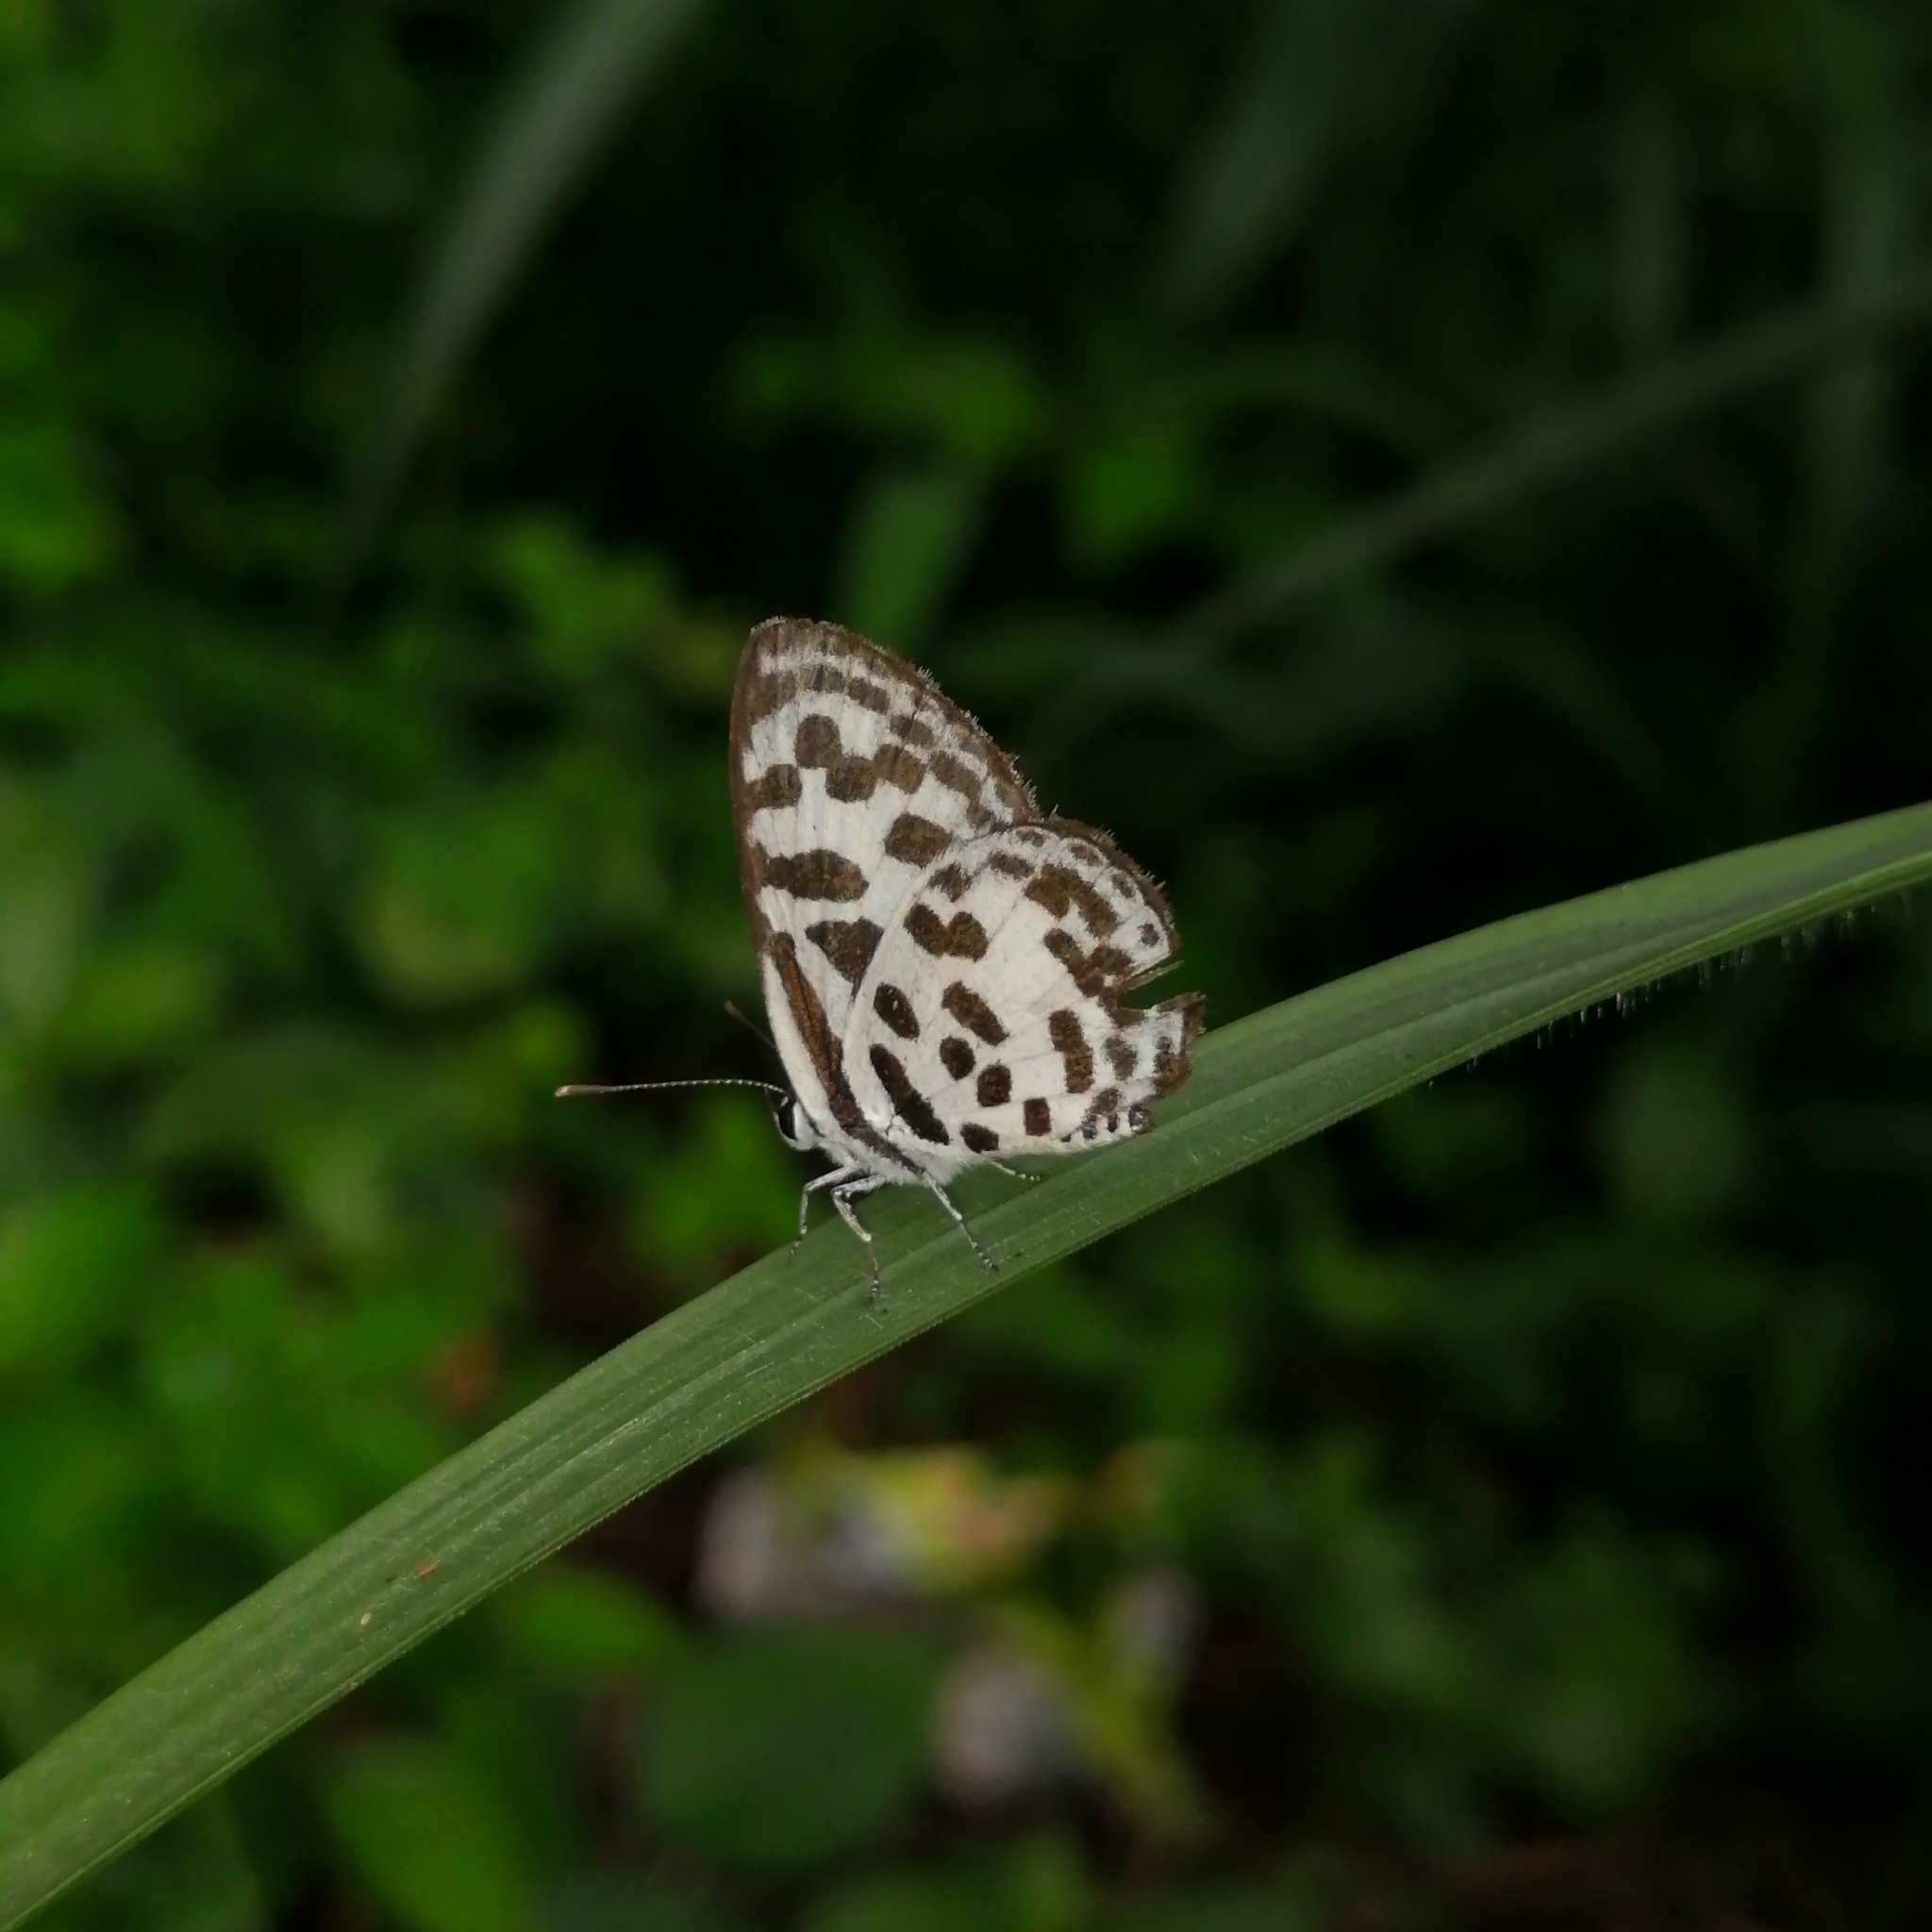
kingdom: Animalia
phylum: Arthropoda
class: Insecta
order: Lepidoptera
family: Lycaenidae
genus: Castalius
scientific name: Castalius rosimon
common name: Common pierrot
